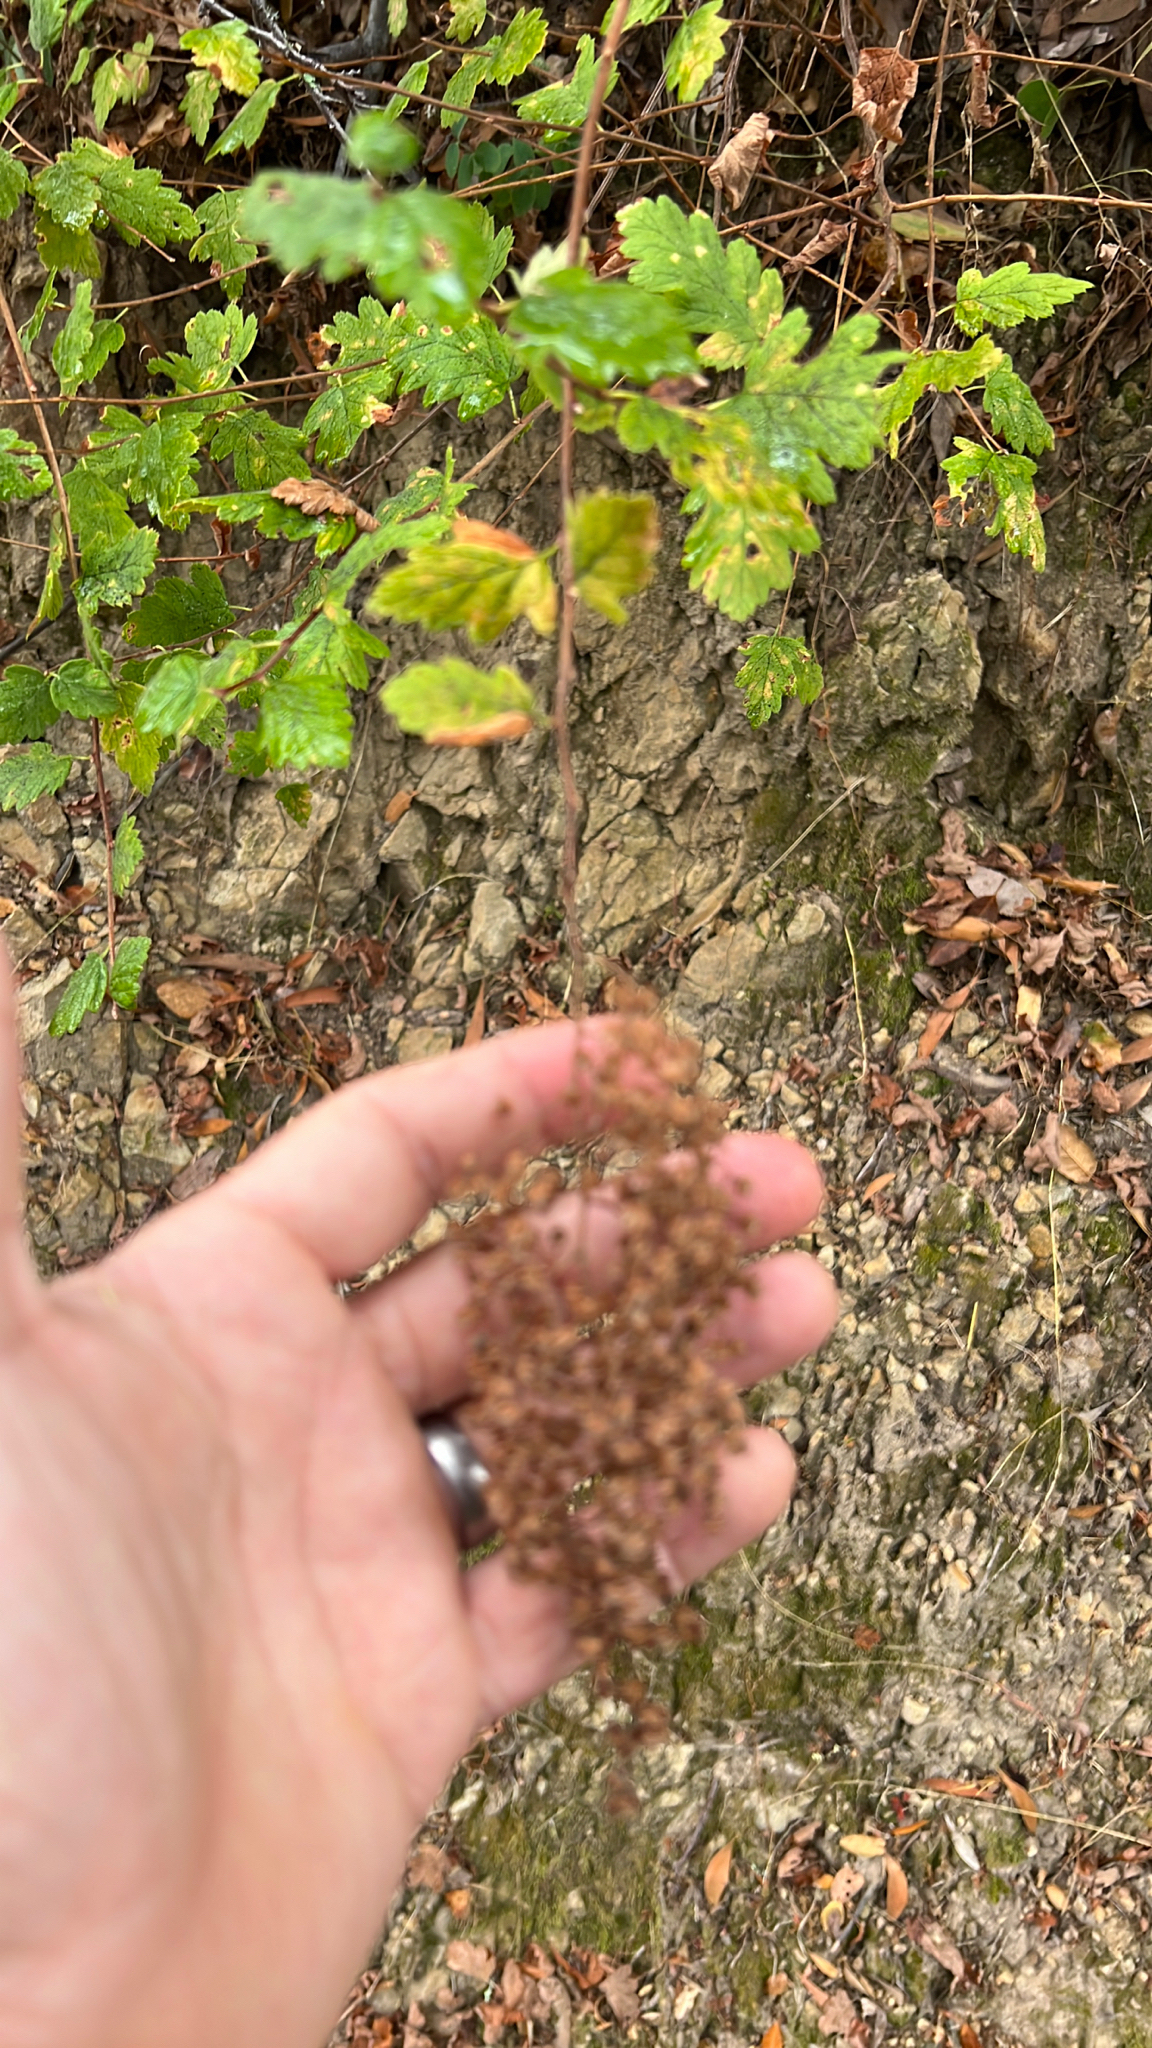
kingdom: Plantae
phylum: Tracheophyta
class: Magnoliopsida
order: Rosales
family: Rosaceae
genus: Holodiscus
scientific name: Holodiscus discolor
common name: Oceanspray
